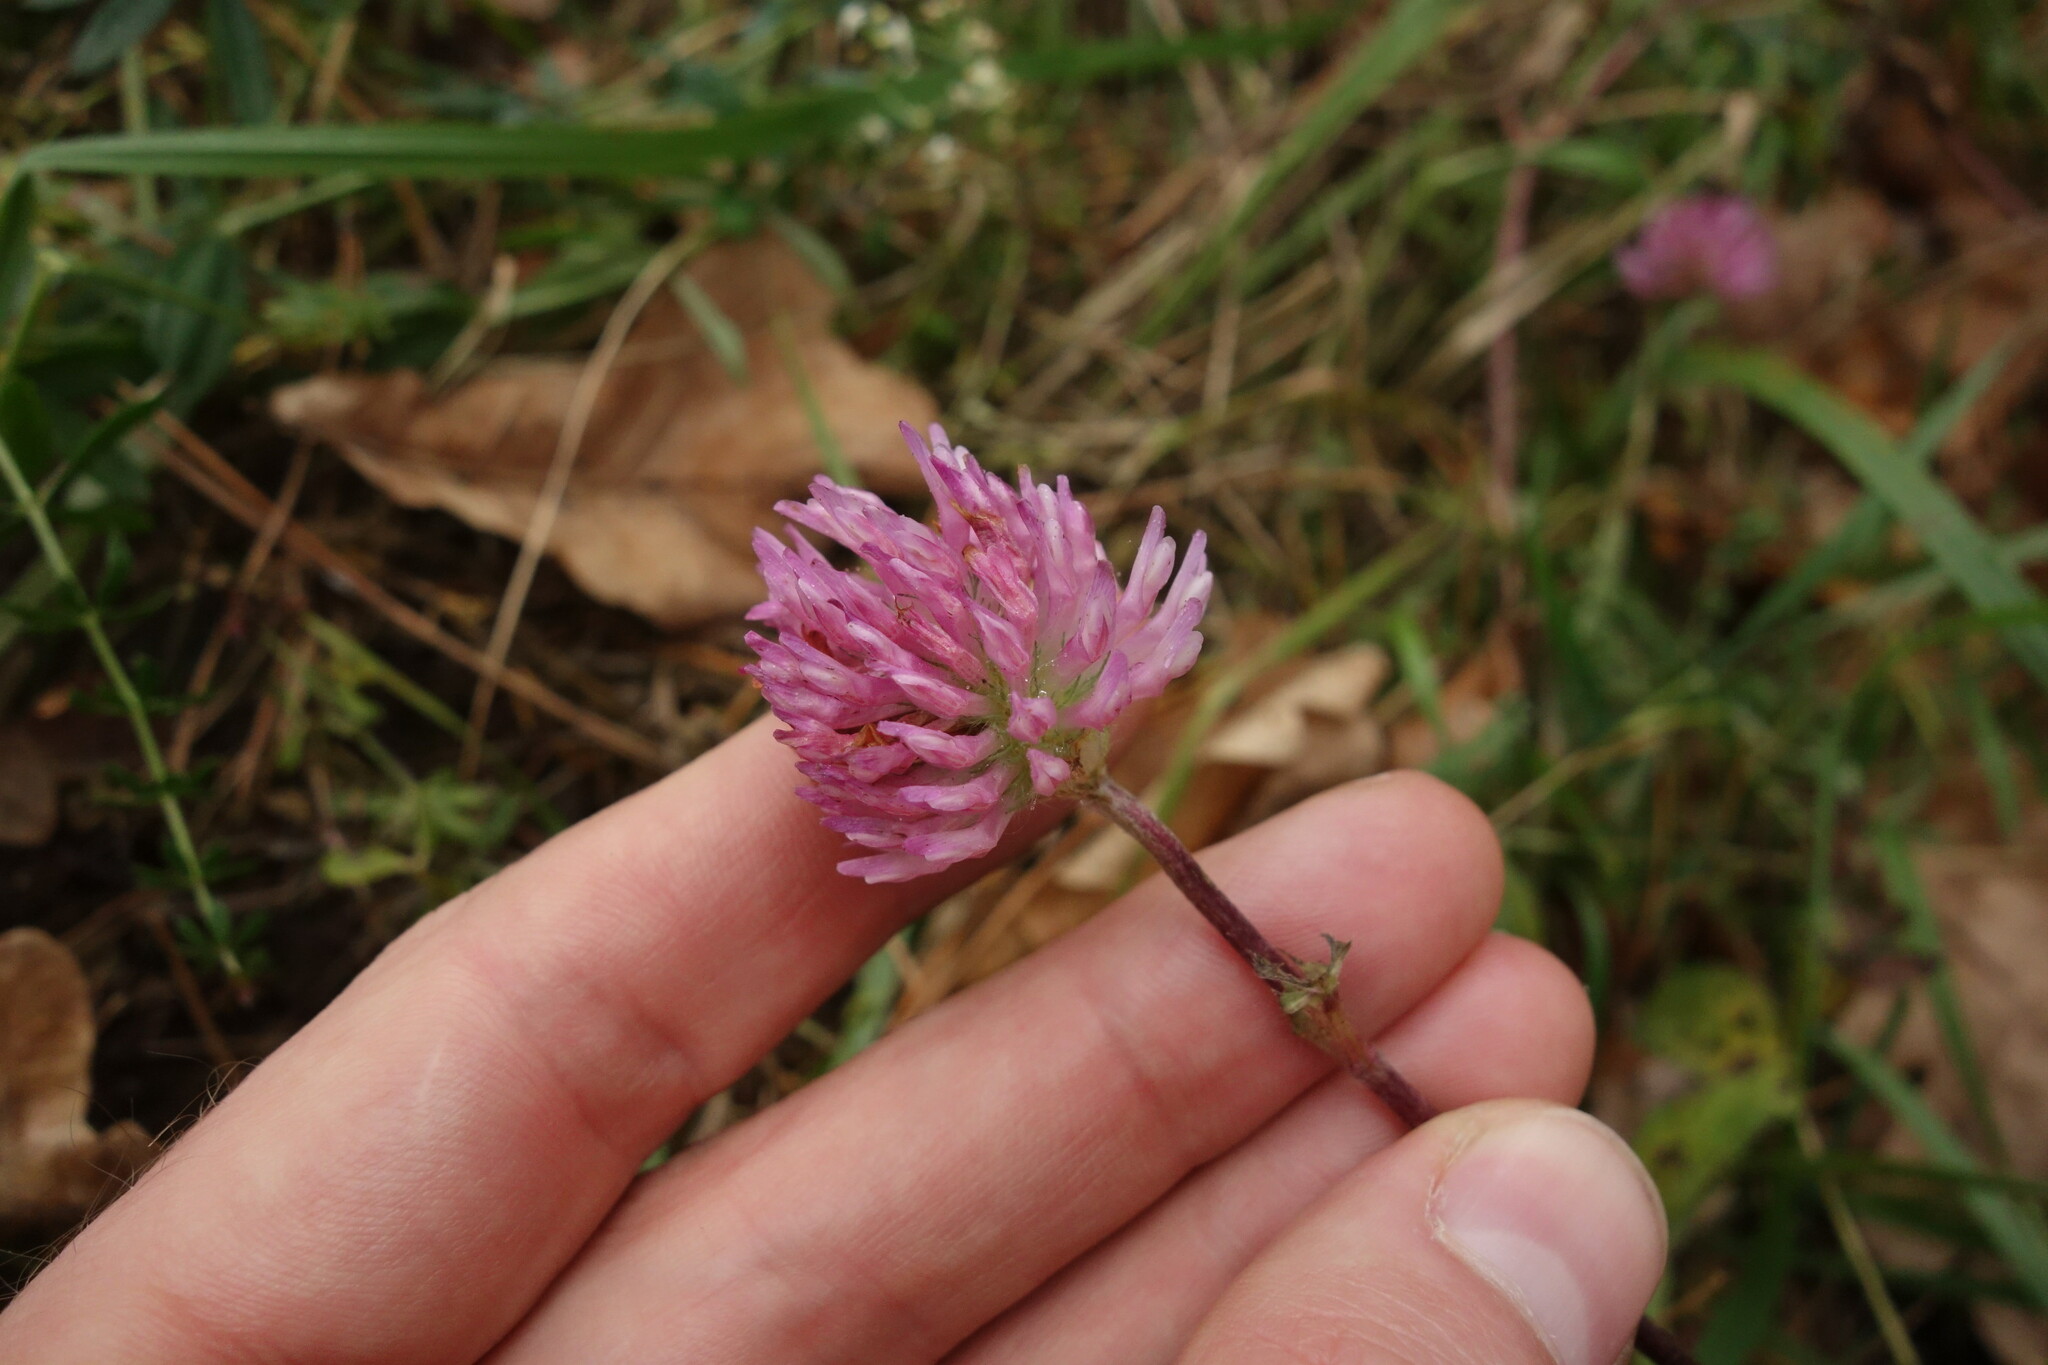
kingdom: Plantae
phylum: Tracheophyta
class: Magnoliopsida
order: Fabales
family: Fabaceae
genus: Trifolium
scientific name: Trifolium pratense
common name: Red clover
